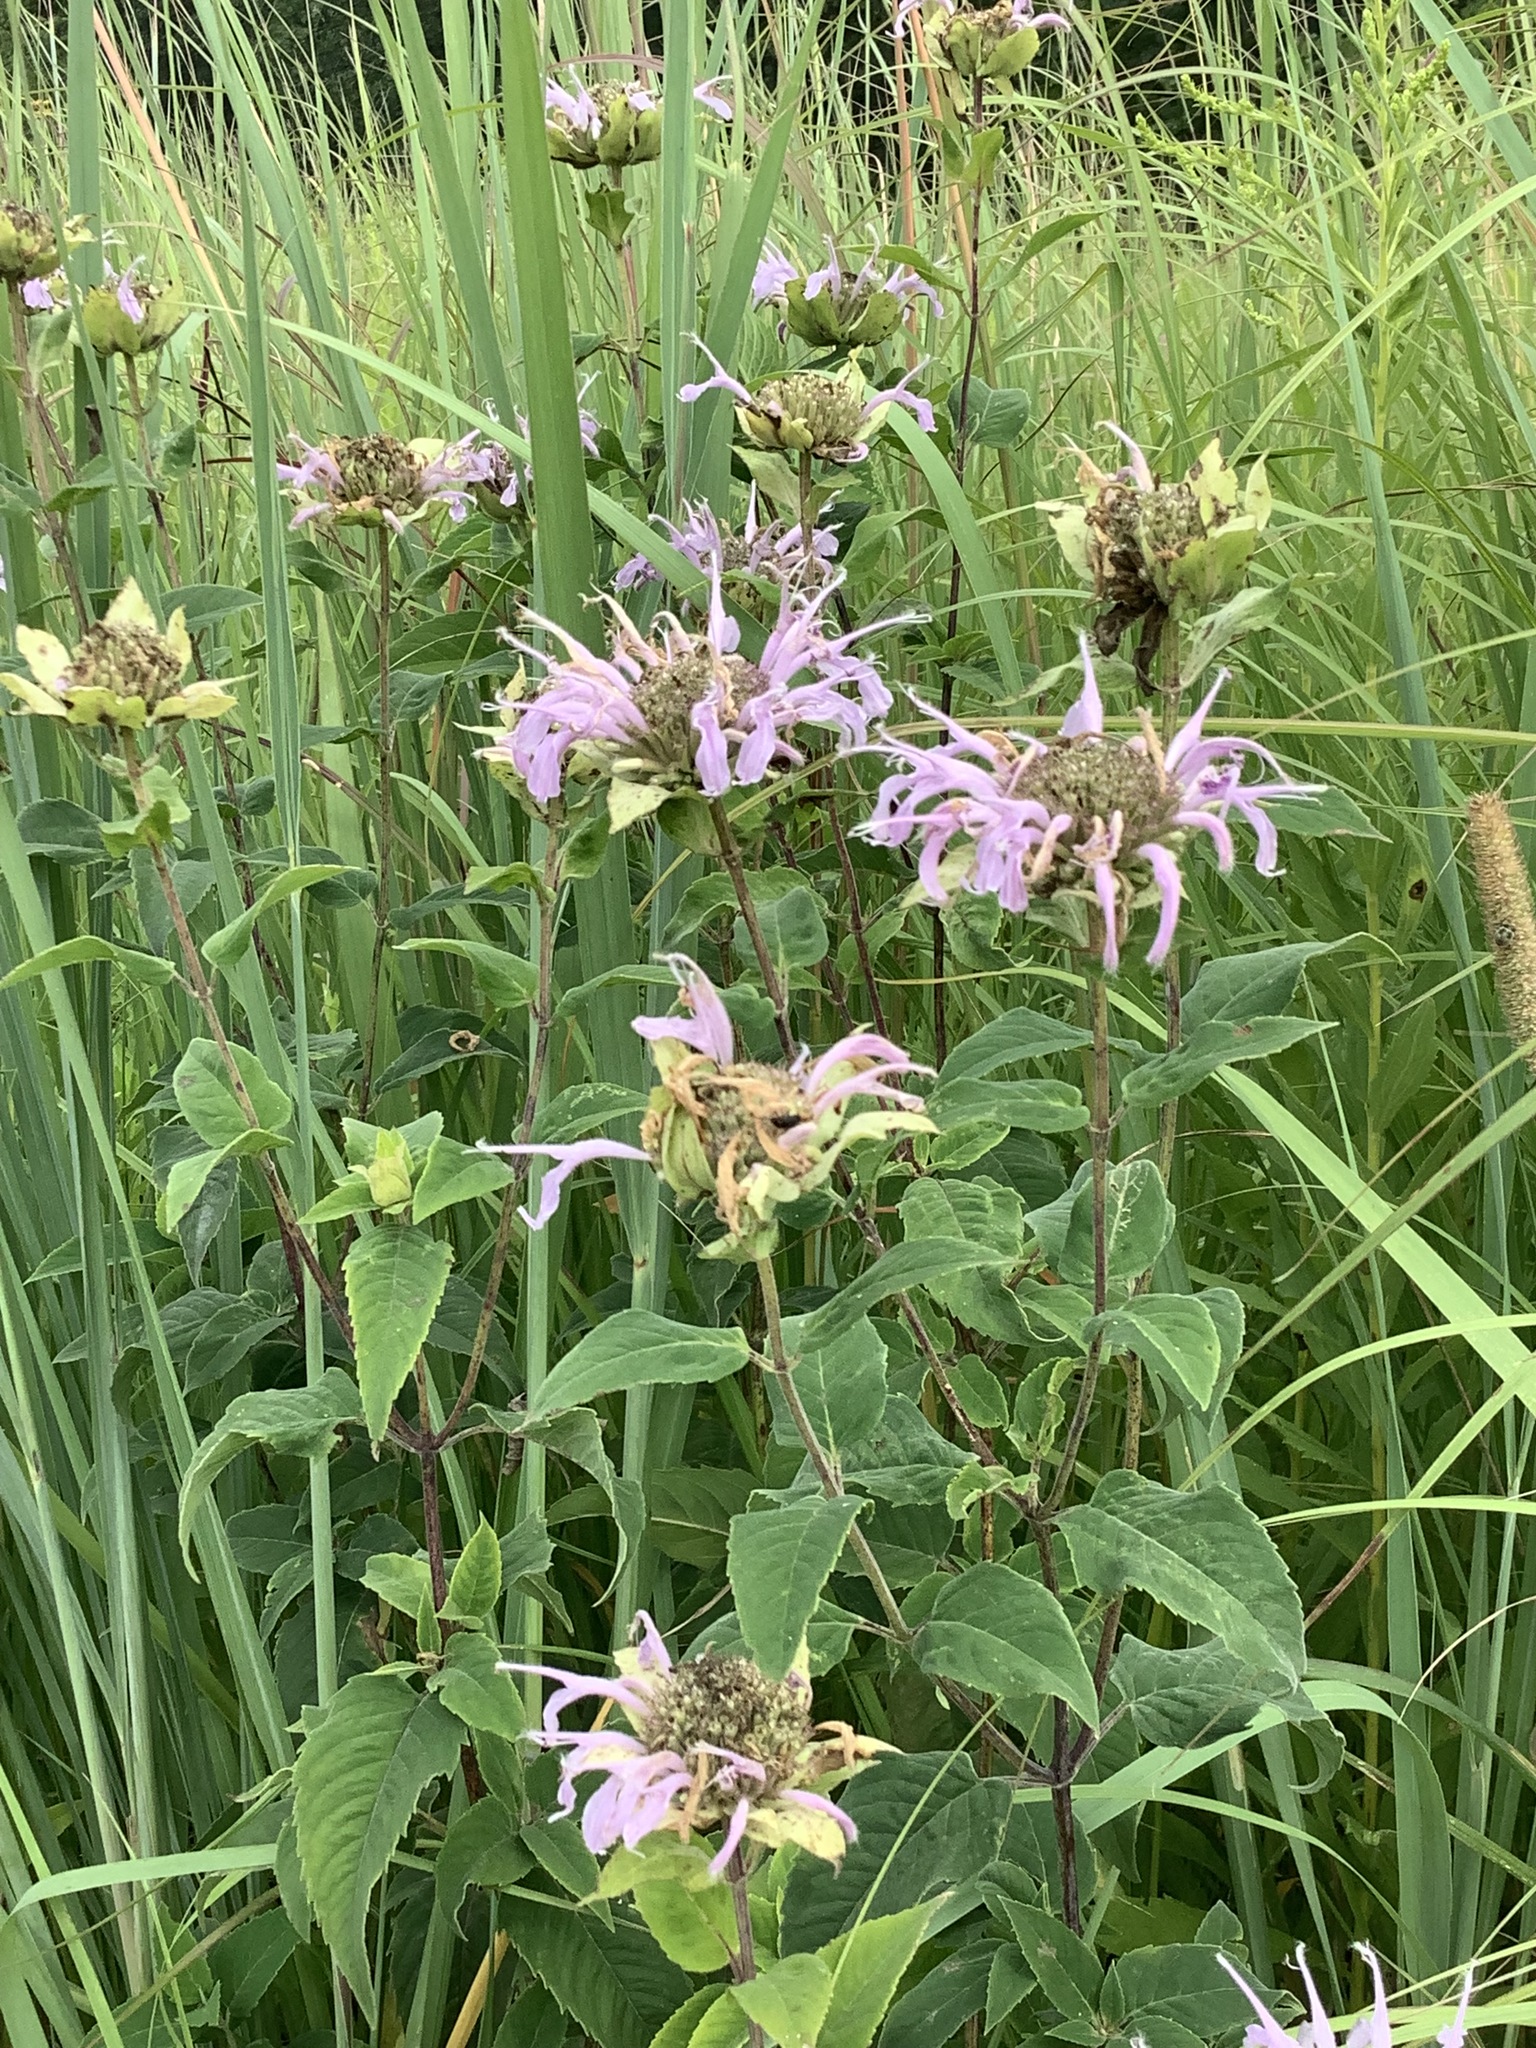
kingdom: Plantae
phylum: Tracheophyta
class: Magnoliopsida
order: Lamiales
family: Lamiaceae
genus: Monarda
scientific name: Monarda fistulosa
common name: Purple beebalm
